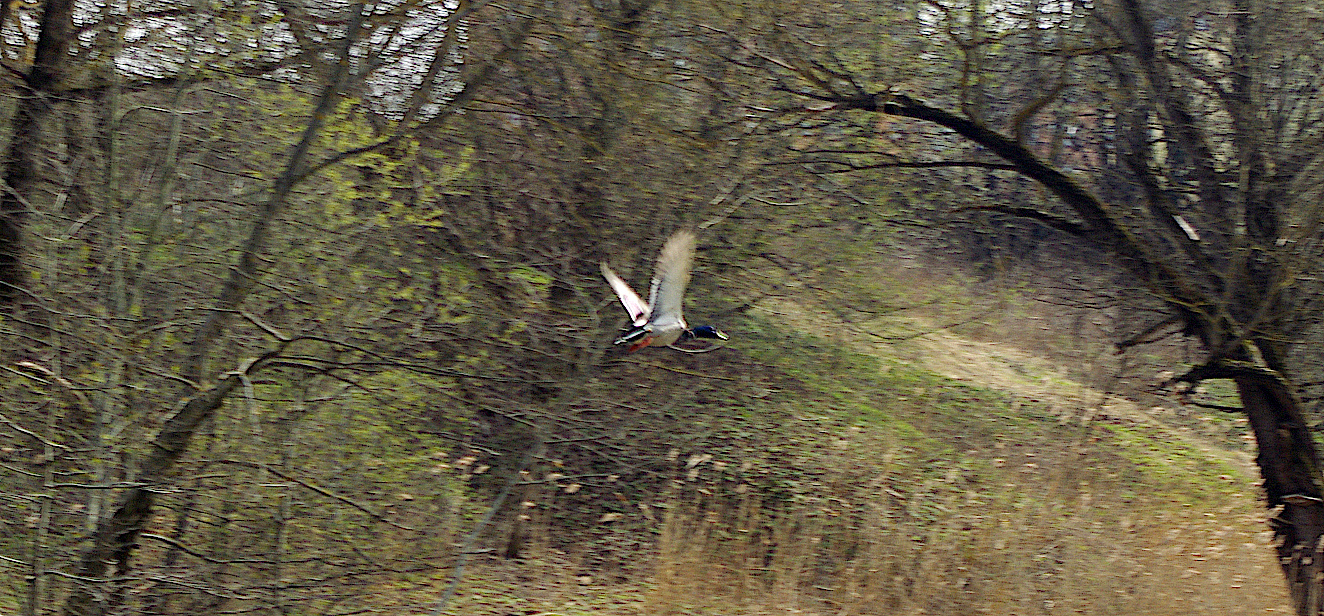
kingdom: Animalia
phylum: Chordata
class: Aves
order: Anseriformes
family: Anatidae
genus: Anas
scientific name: Anas platyrhynchos
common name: Mallard
